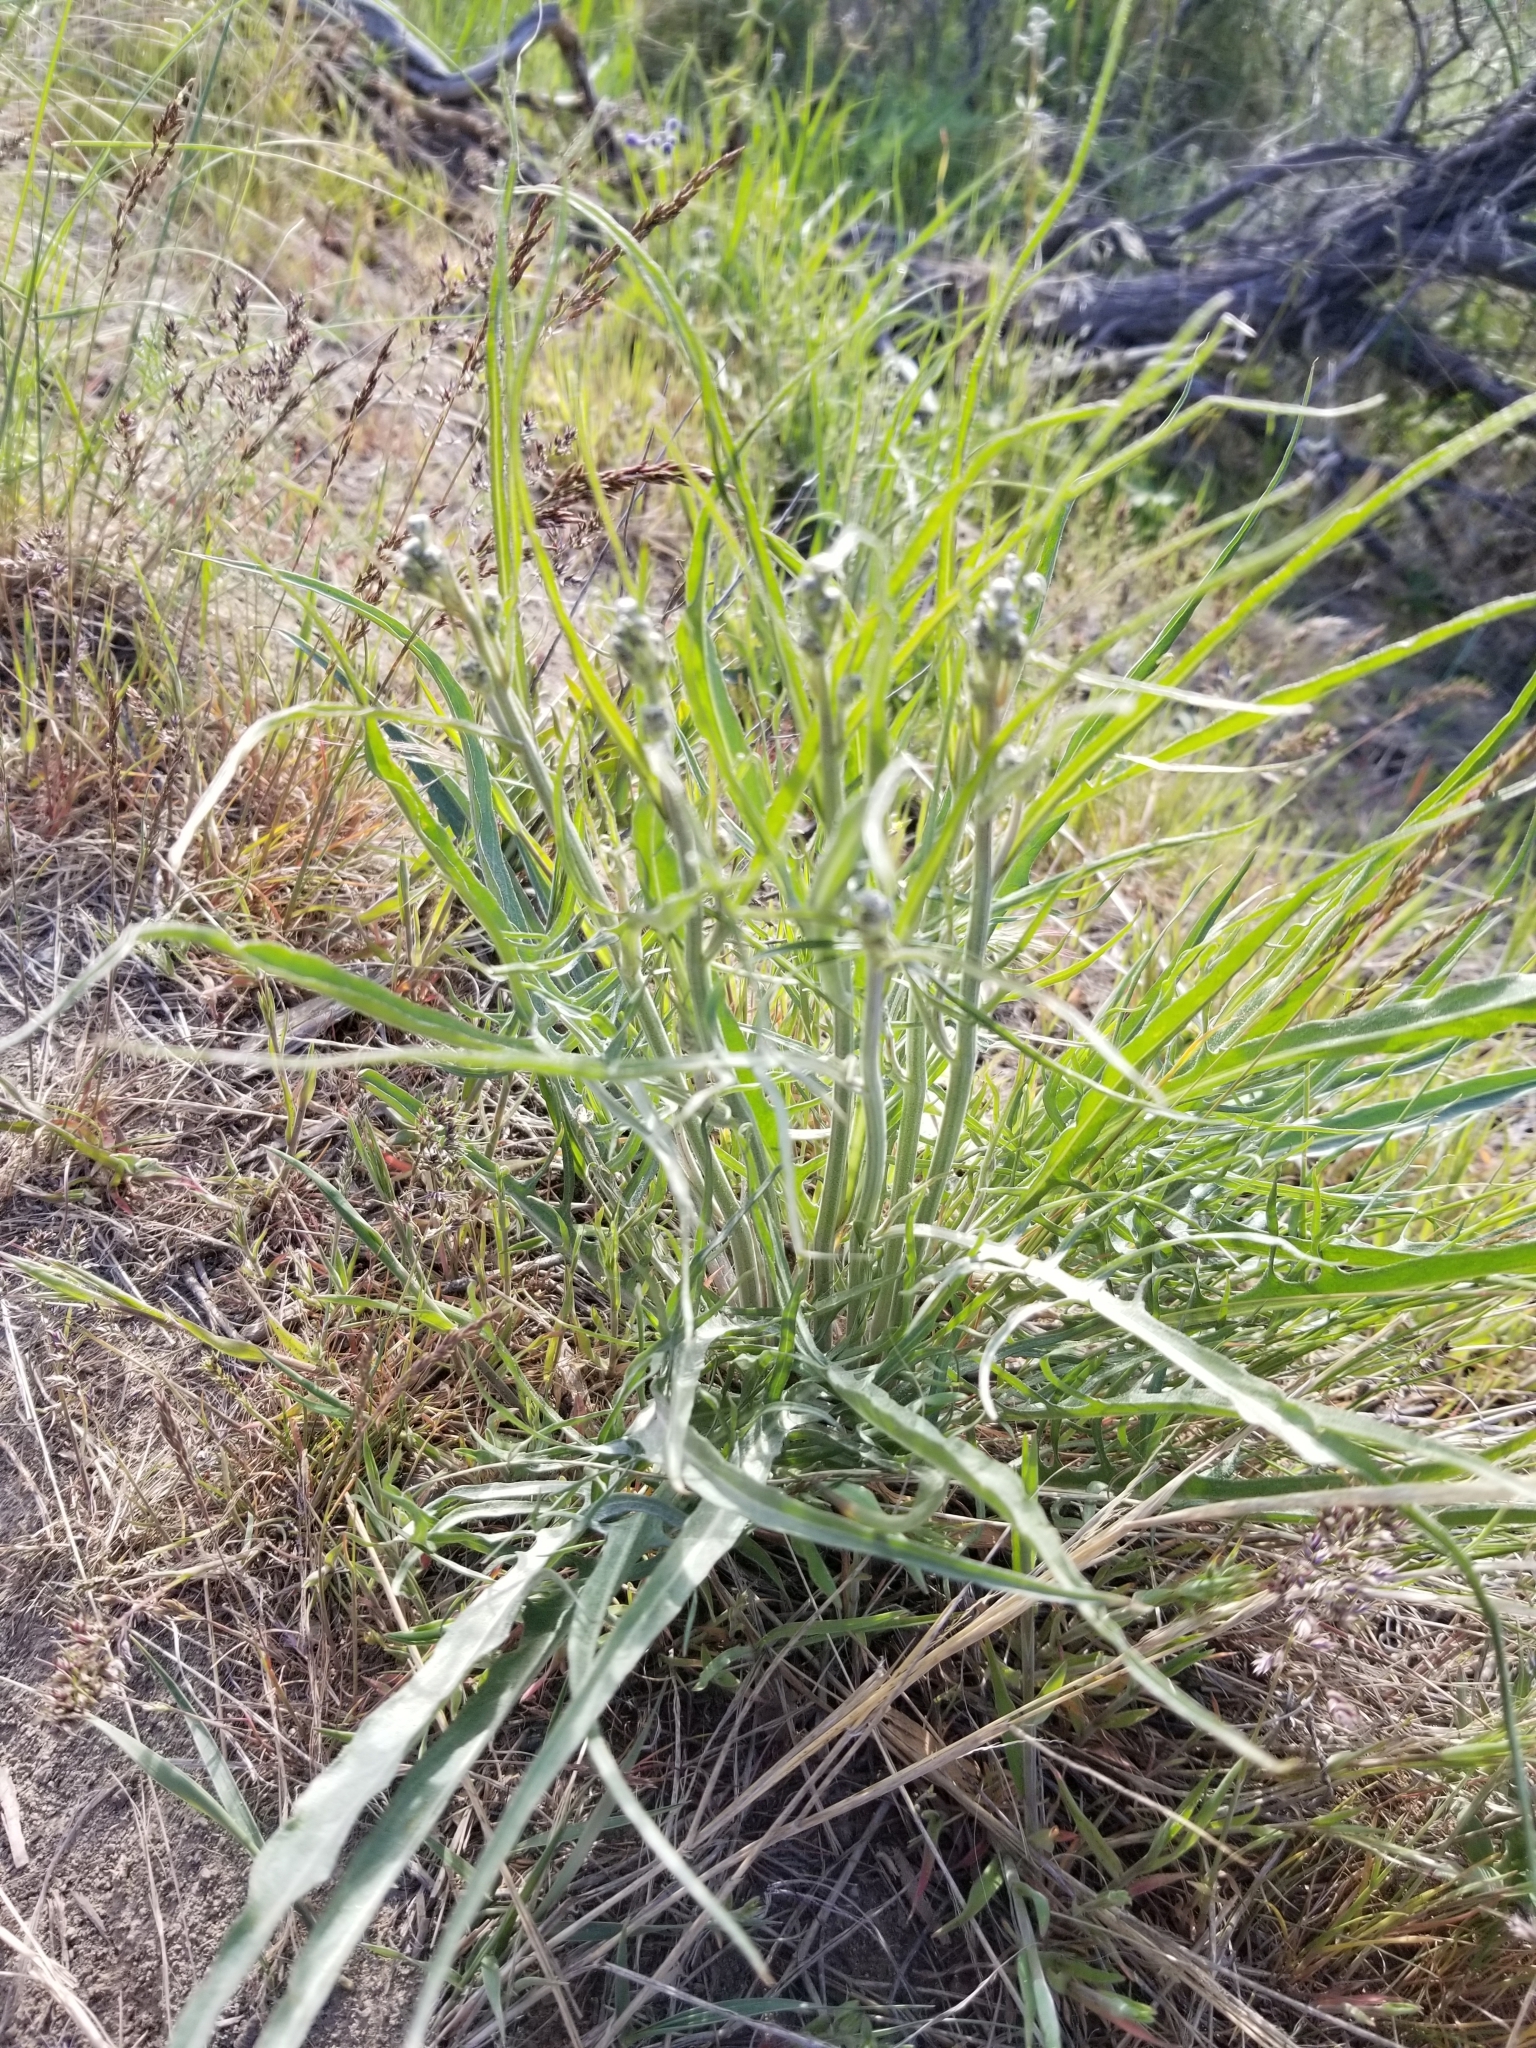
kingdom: Plantae
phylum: Tracheophyta
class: Magnoliopsida
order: Asterales
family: Asteraceae
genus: Crepis
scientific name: Crepis atribarba
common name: Dark hawk's-beard
